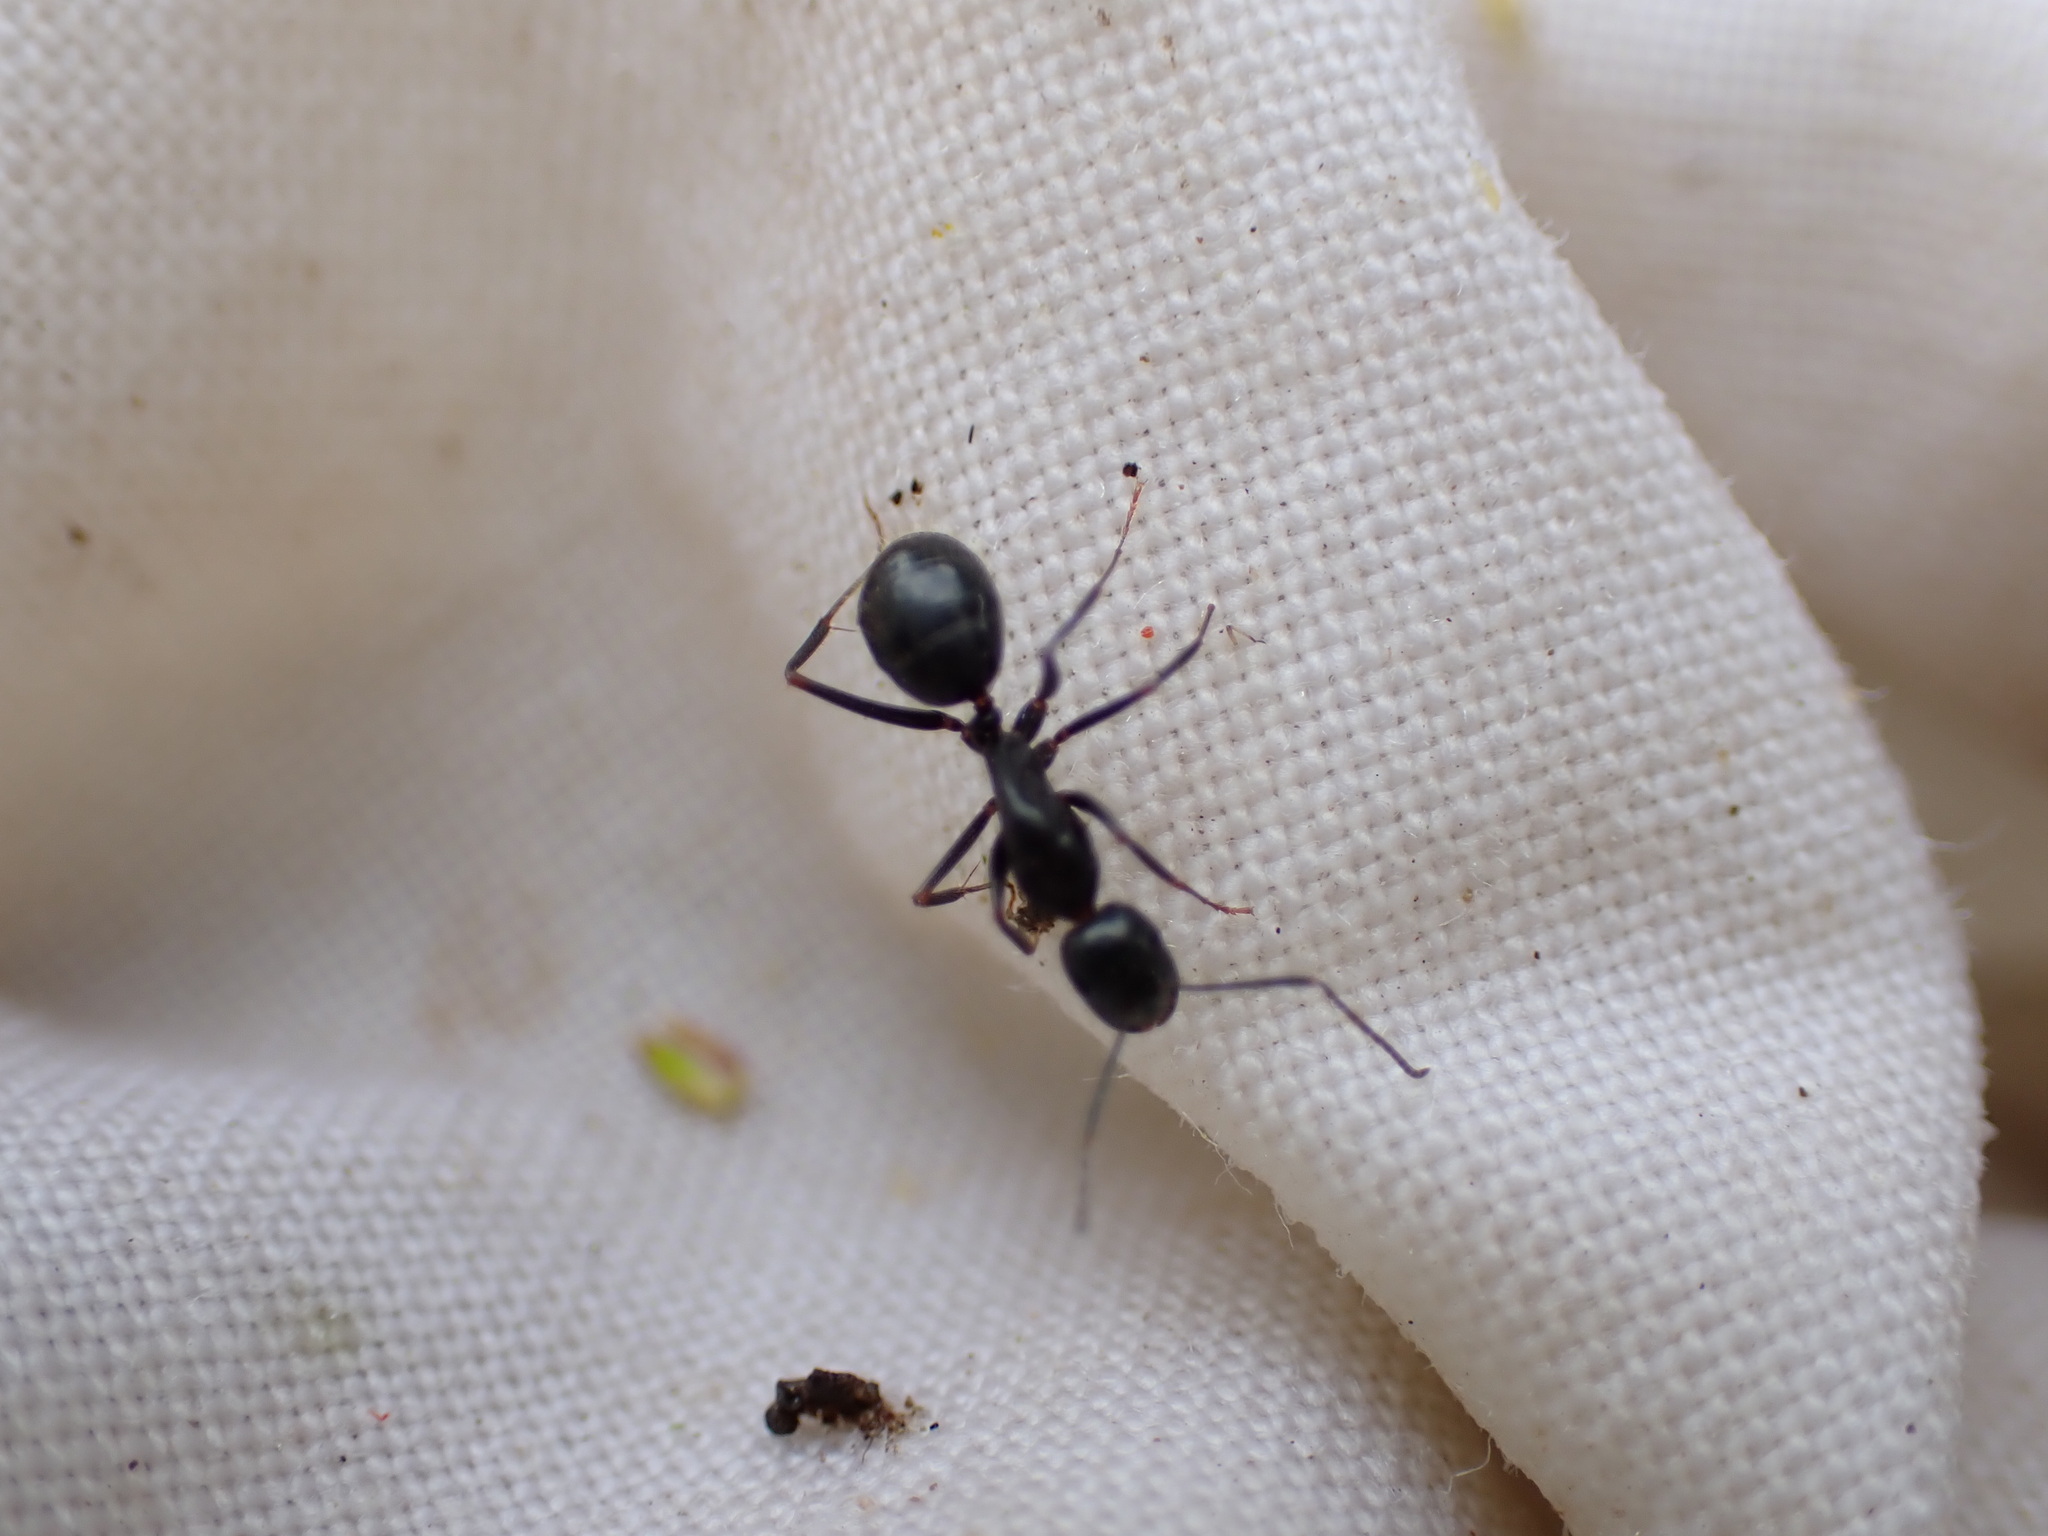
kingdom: Animalia
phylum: Arthropoda
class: Insecta
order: Hymenoptera
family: Formicidae
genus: Camponotus
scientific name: Camponotus aethiops
